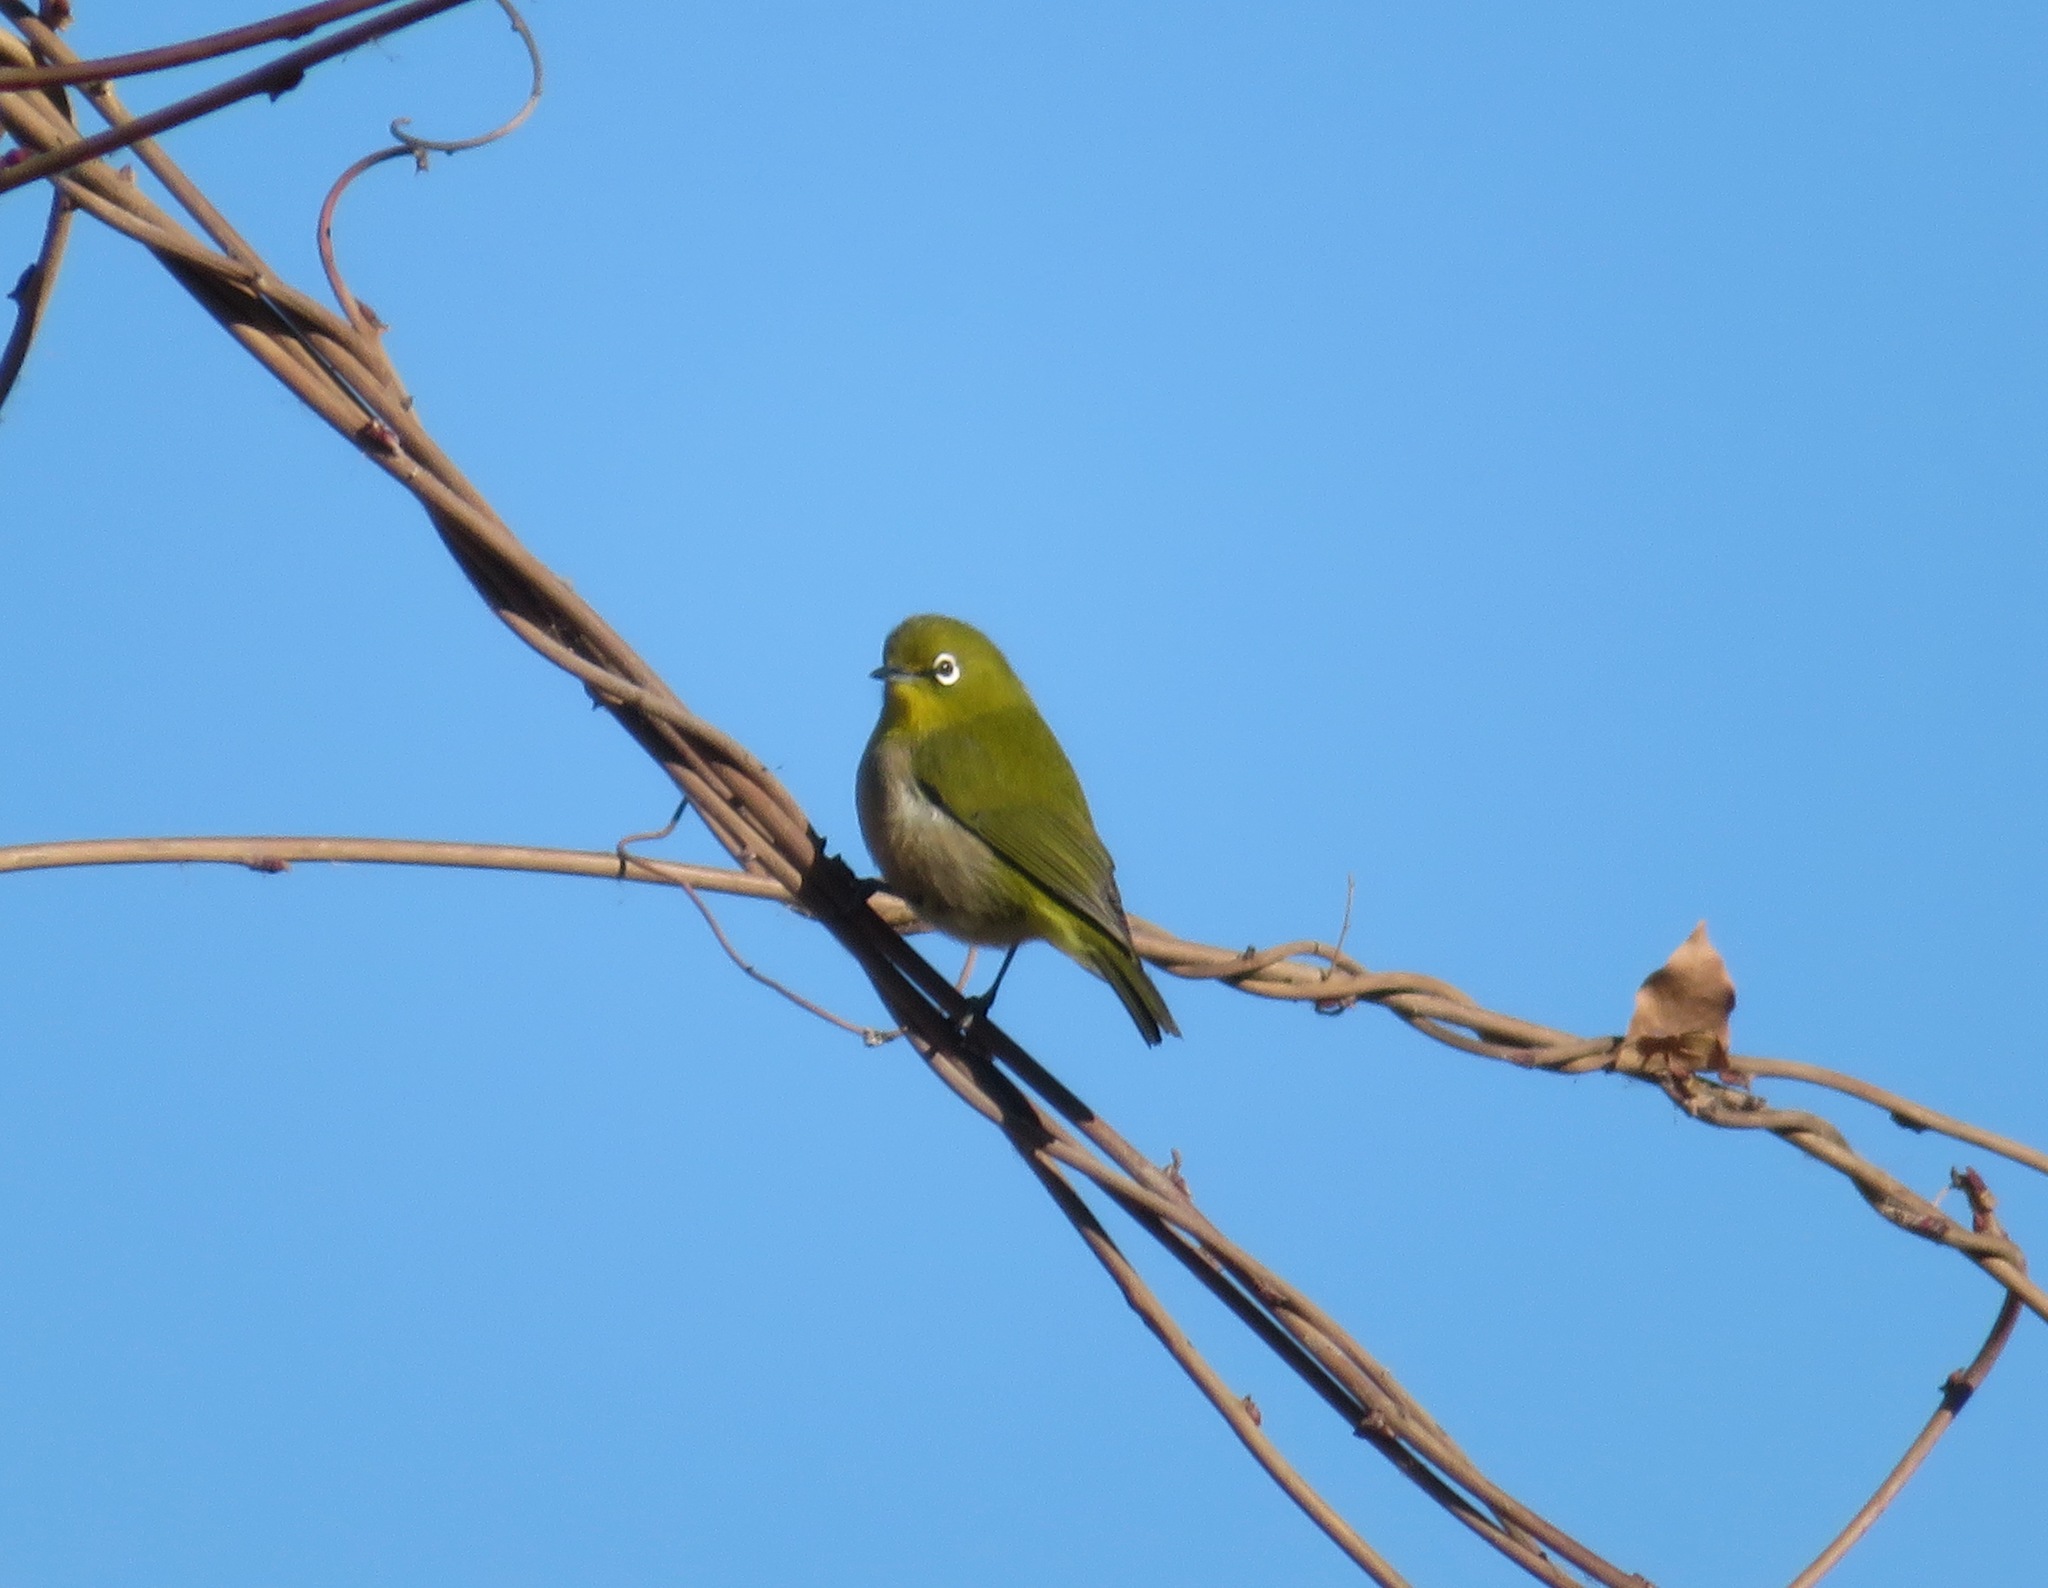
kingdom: Animalia
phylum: Chordata
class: Aves
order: Passeriformes
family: Zosteropidae
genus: Zosterops
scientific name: Zosterops japonicus
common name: Japanese white-eye
